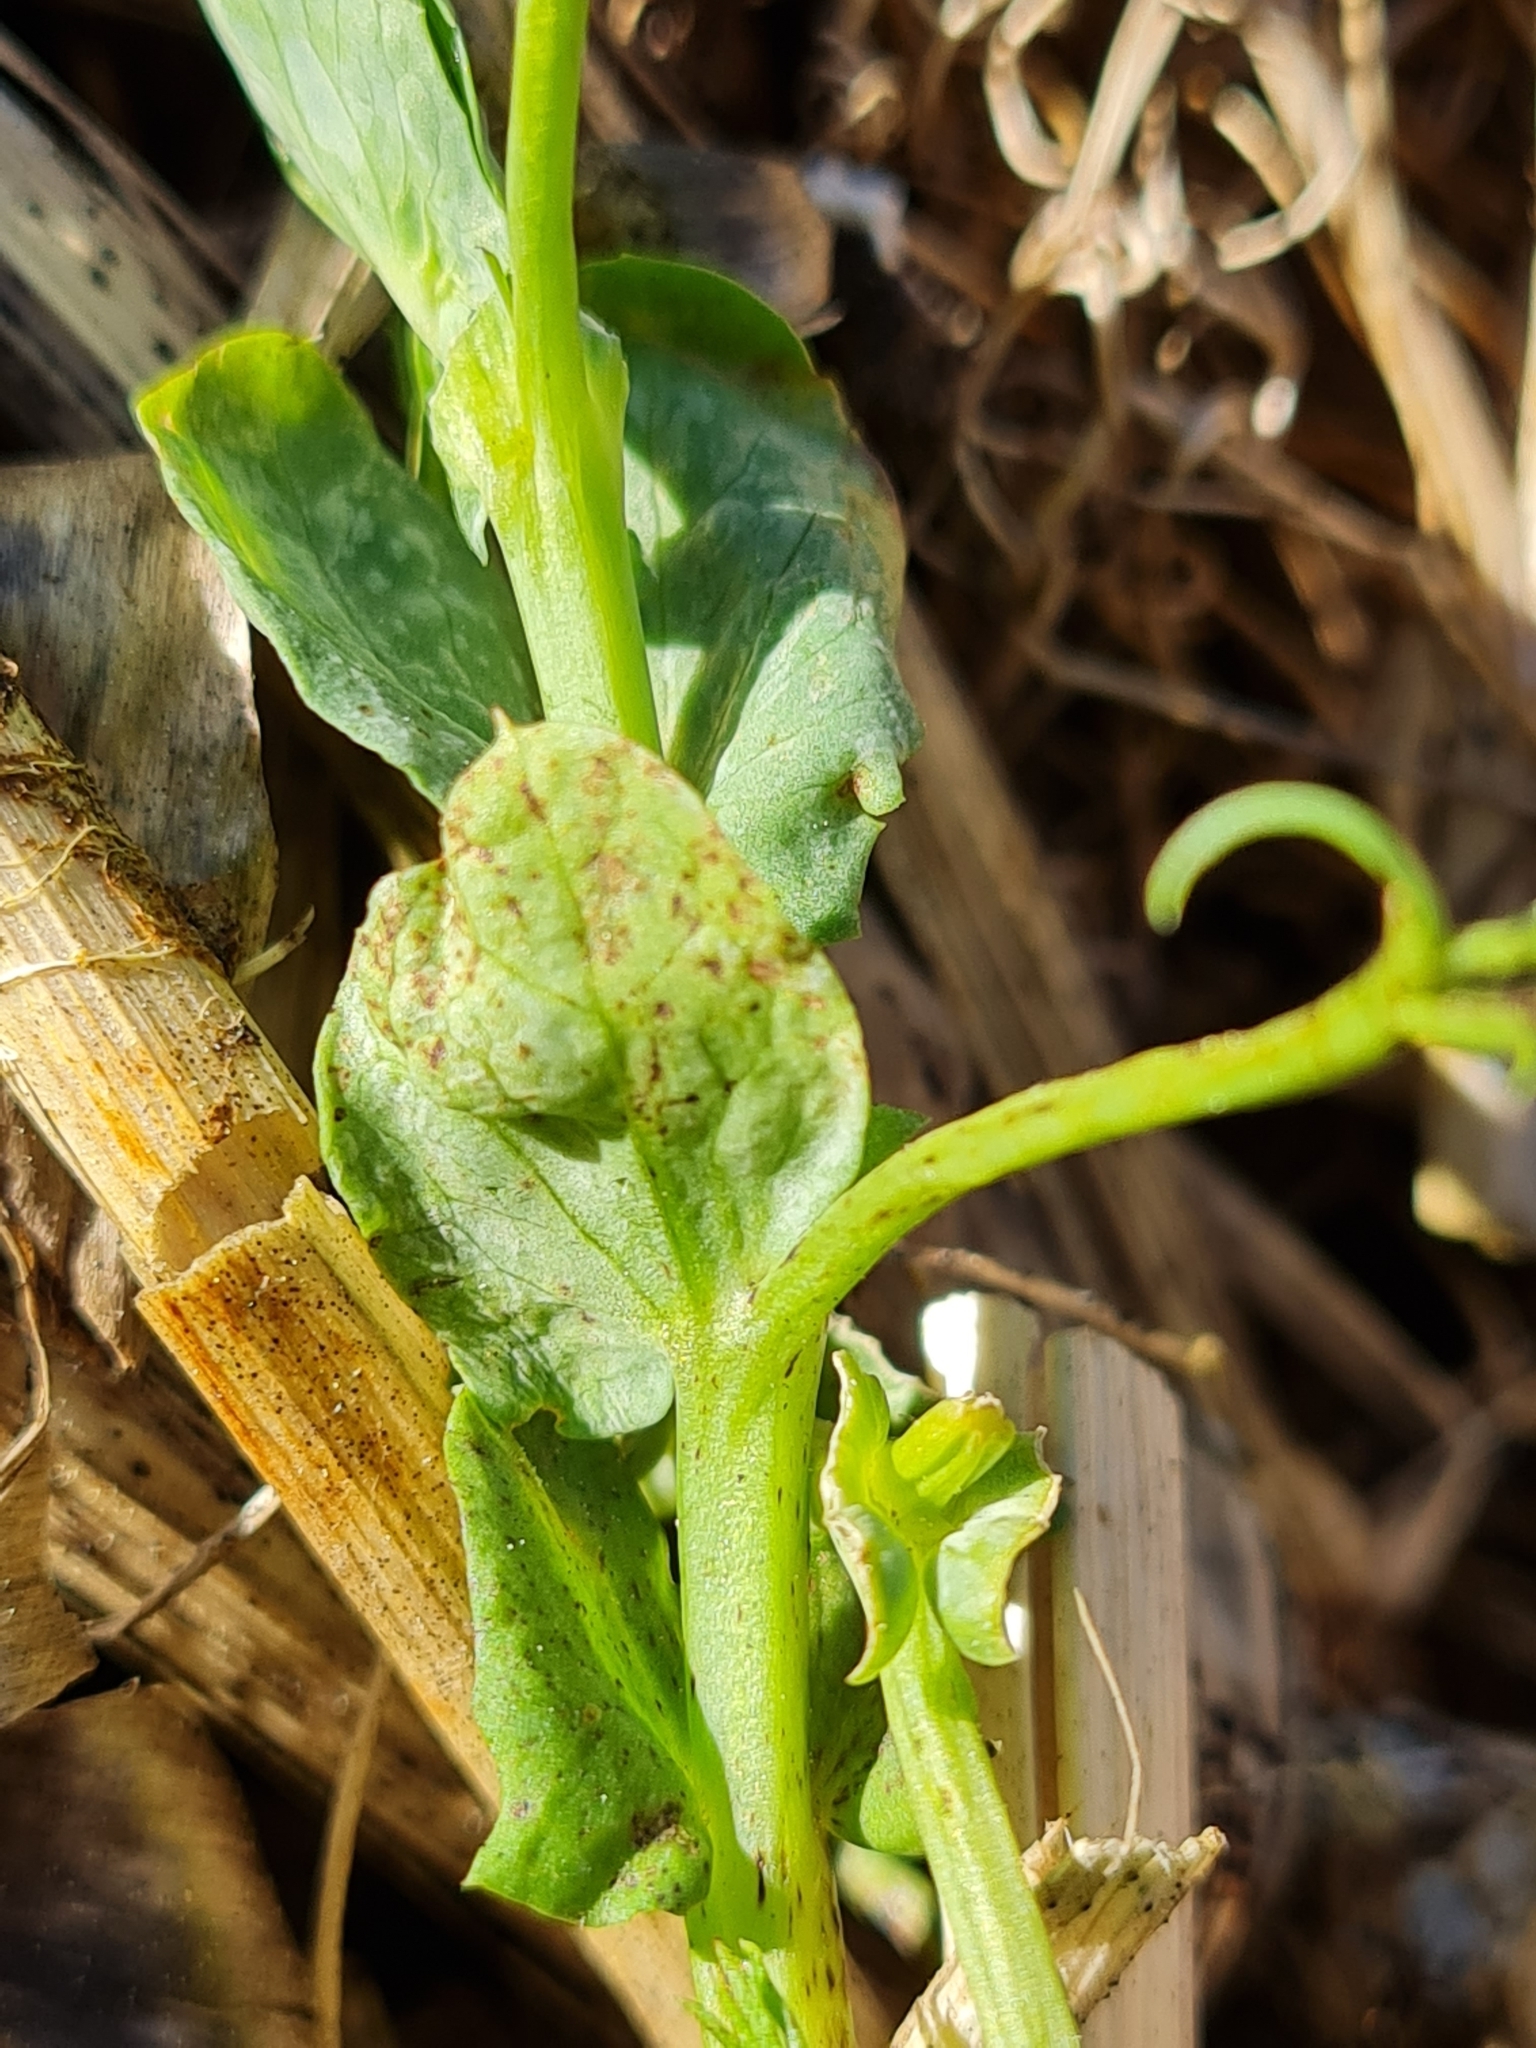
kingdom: Plantae
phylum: Tracheophyta
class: Magnoliopsida
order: Fabales
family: Fabaceae
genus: Lathyrus
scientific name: Lathyrus oleraceus
